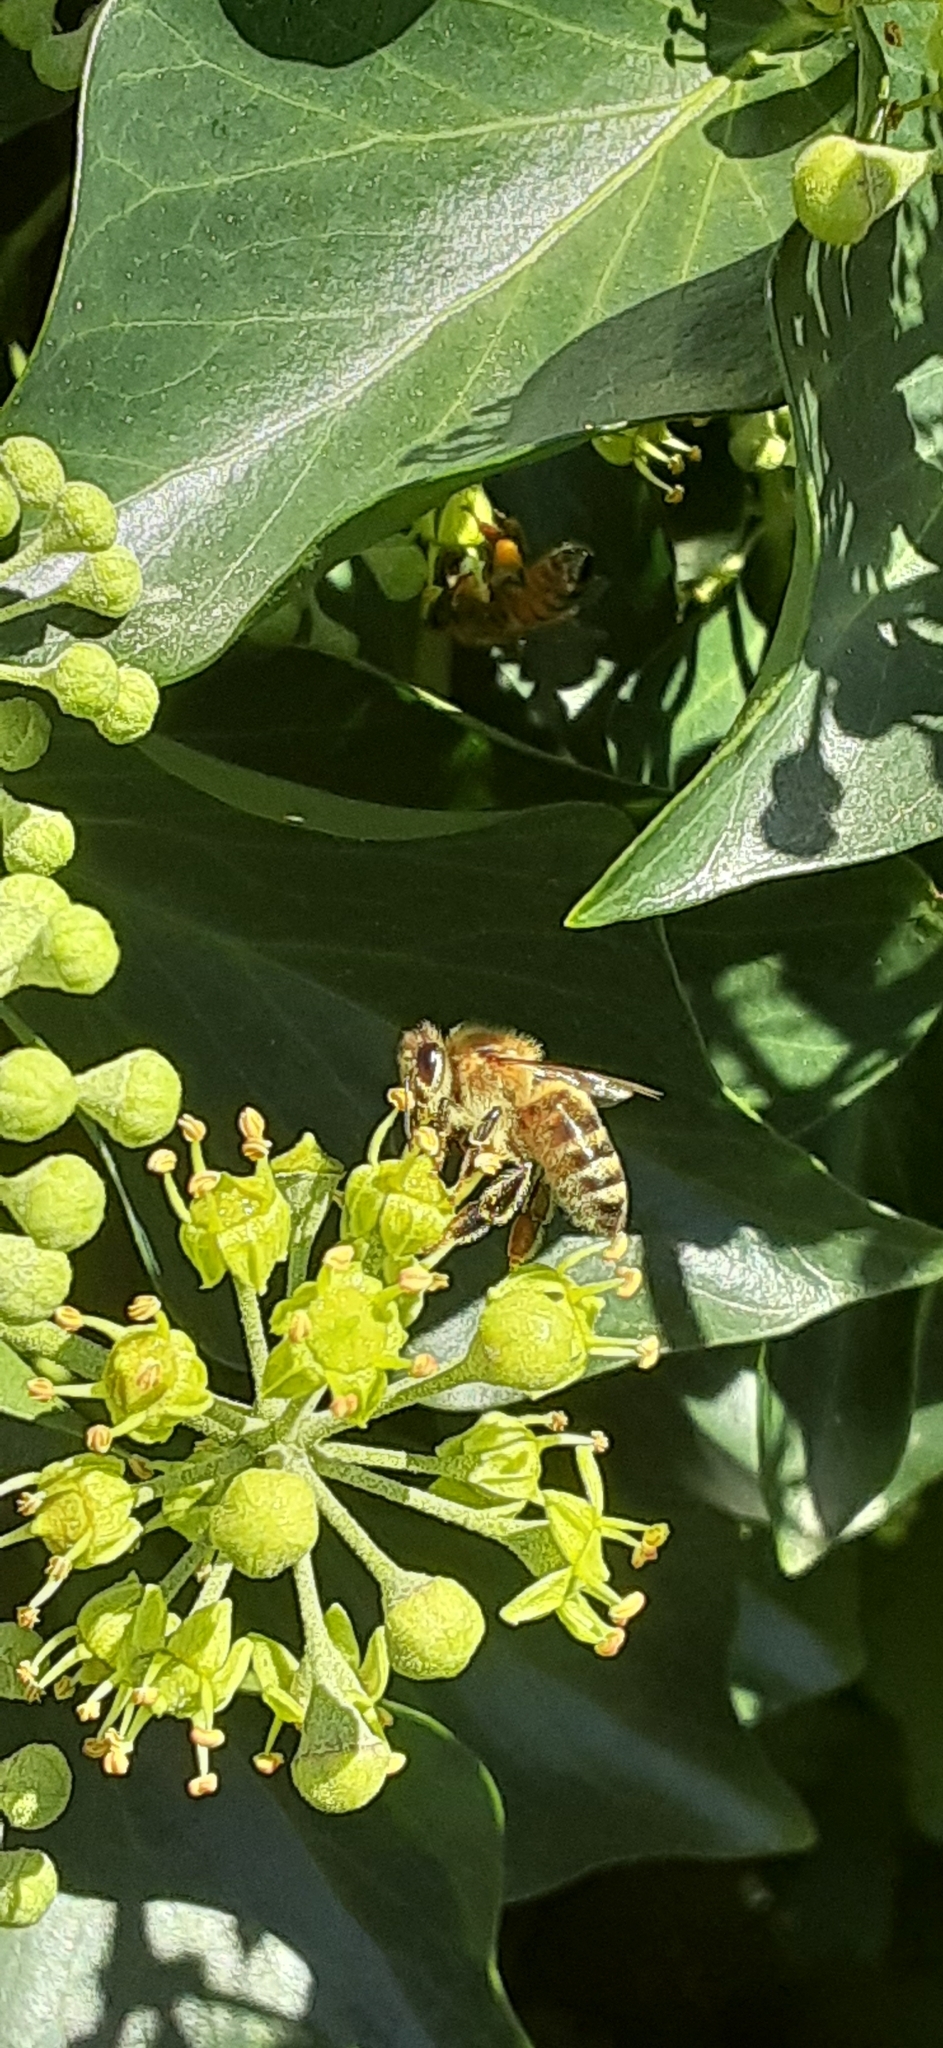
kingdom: Animalia
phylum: Arthropoda
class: Insecta
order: Hymenoptera
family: Apidae
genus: Apis
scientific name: Apis mellifera
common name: Honey bee
